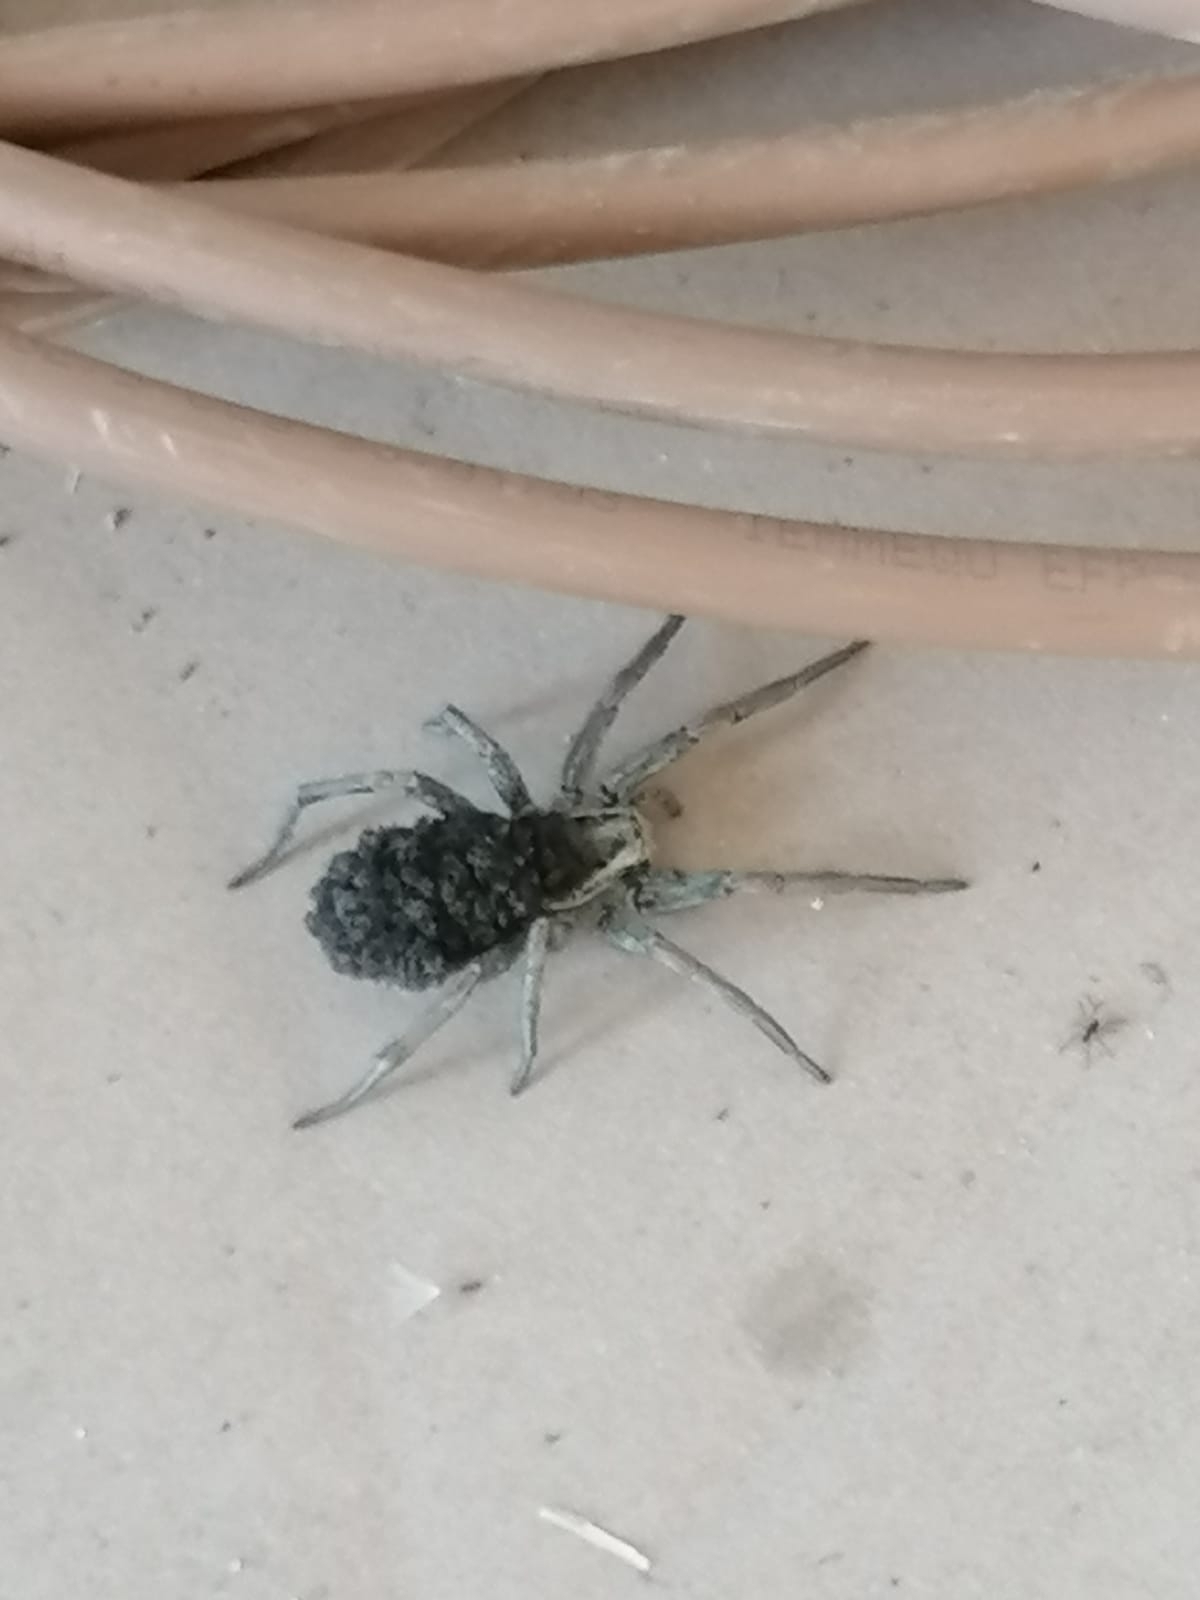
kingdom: Animalia
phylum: Arthropoda
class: Arachnida
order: Araneae
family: Lycosidae
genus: Hogna
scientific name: Hogna radiata
